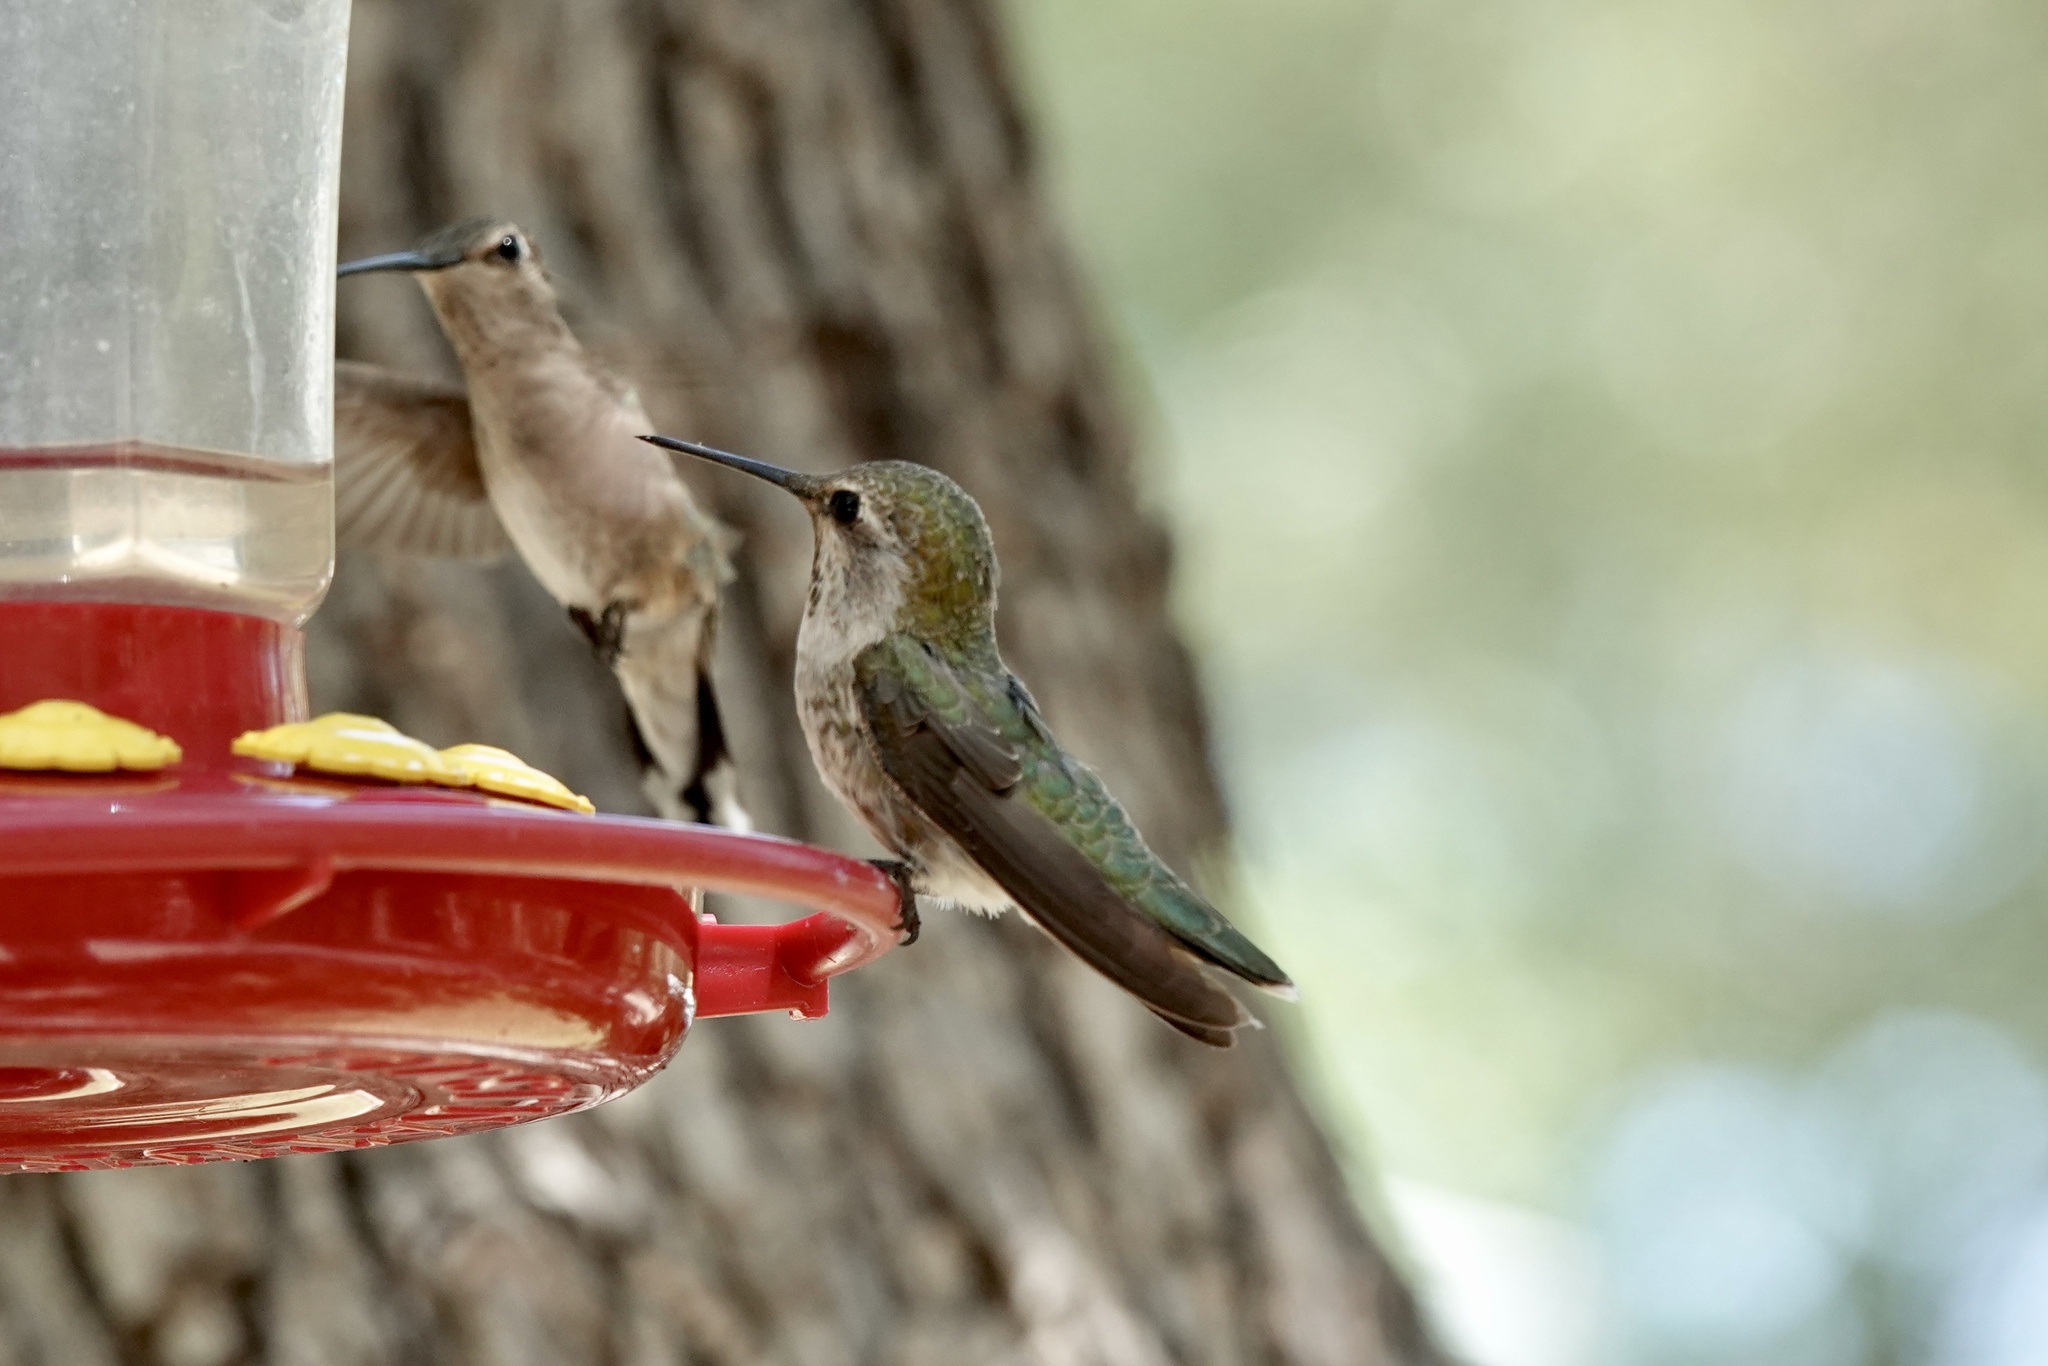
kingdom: Animalia
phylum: Chordata
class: Aves
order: Apodiformes
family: Trochilidae
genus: Calypte
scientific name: Calypte anna
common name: Anna's hummingbird
